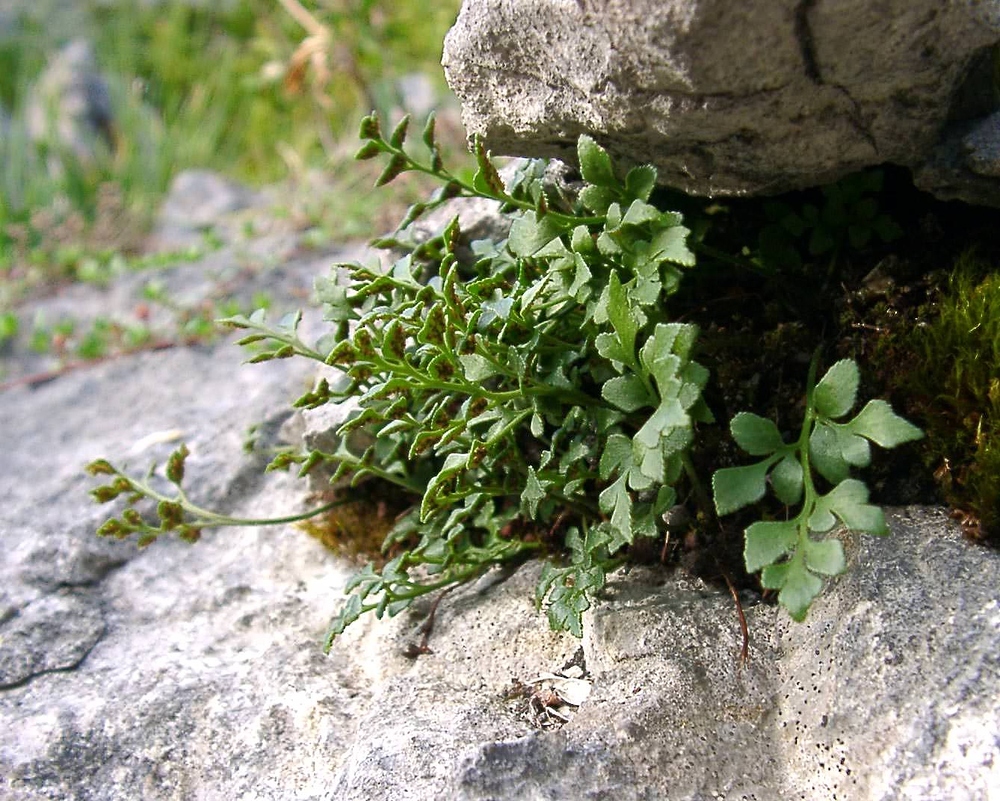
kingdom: Plantae
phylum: Tracheophyta
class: Polypodiopsida
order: Polypodiales
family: Aspleniaceae
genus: Asplenium
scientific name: Asplenium ruta-muraria
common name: Wall-rue
